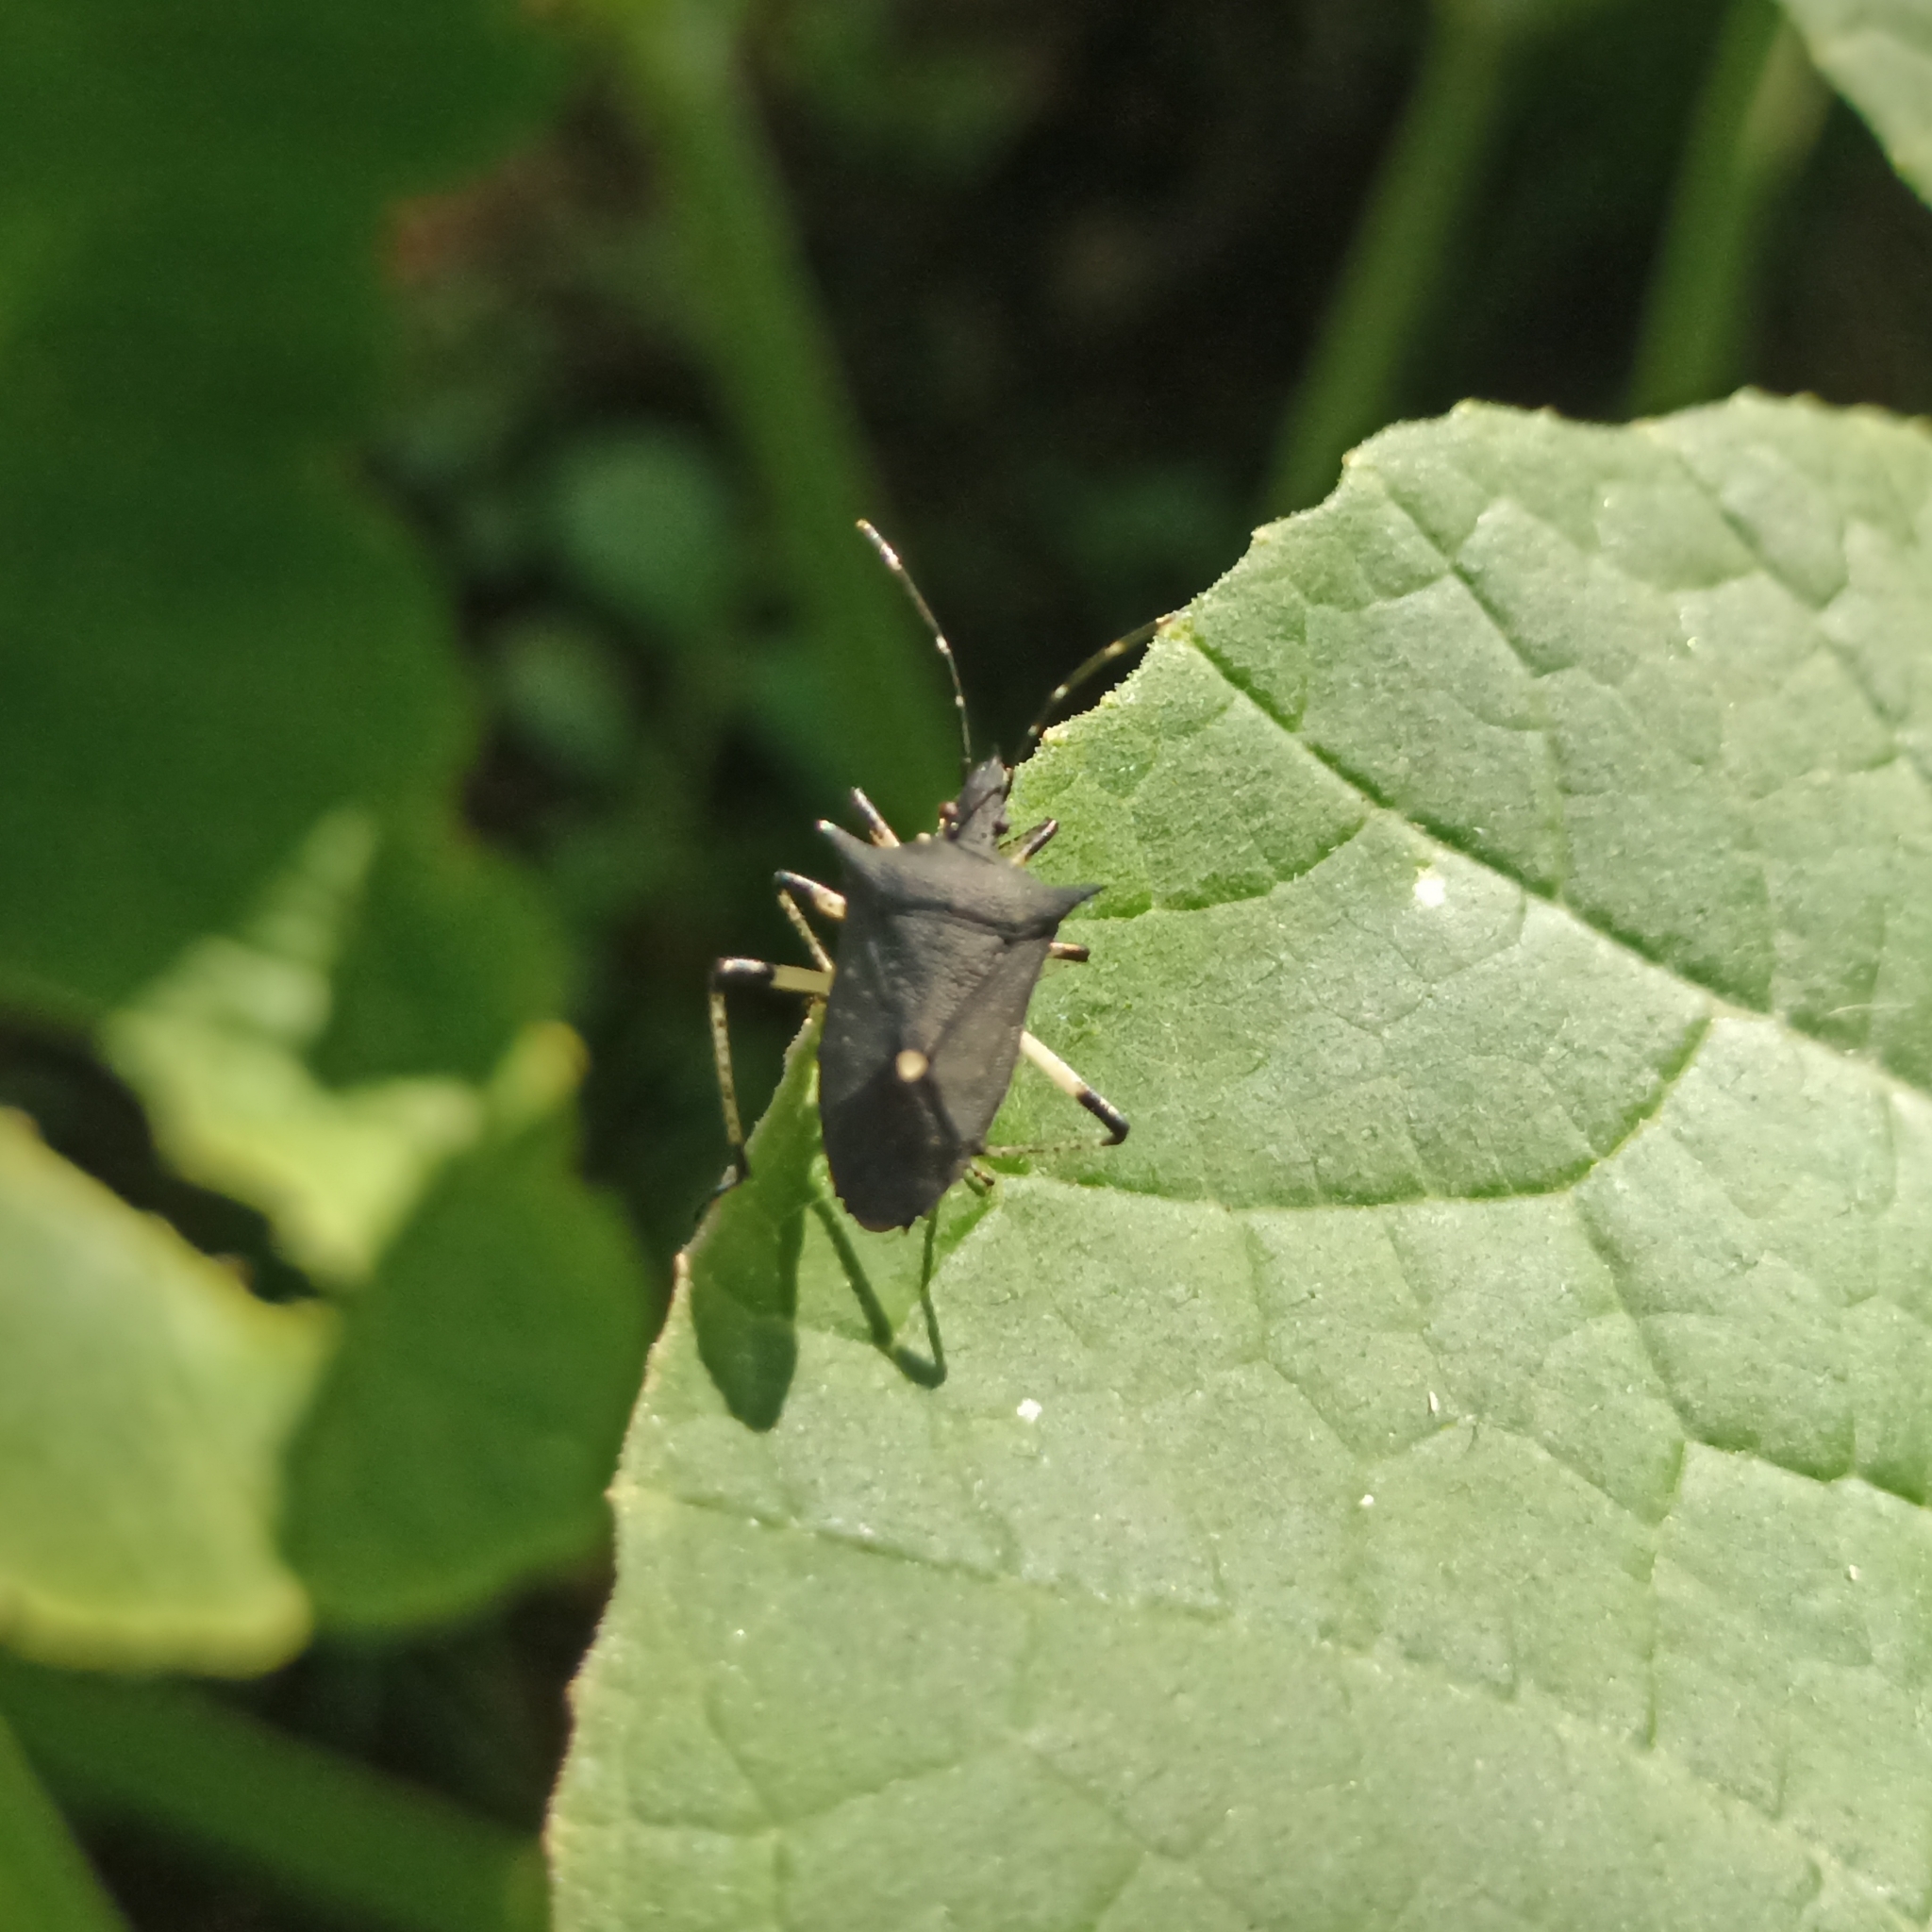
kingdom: Animalia
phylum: Arthropoda
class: Insecta
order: Hemiptera
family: Pentatomidae
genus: Proxys
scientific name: Proxys punctulatus
